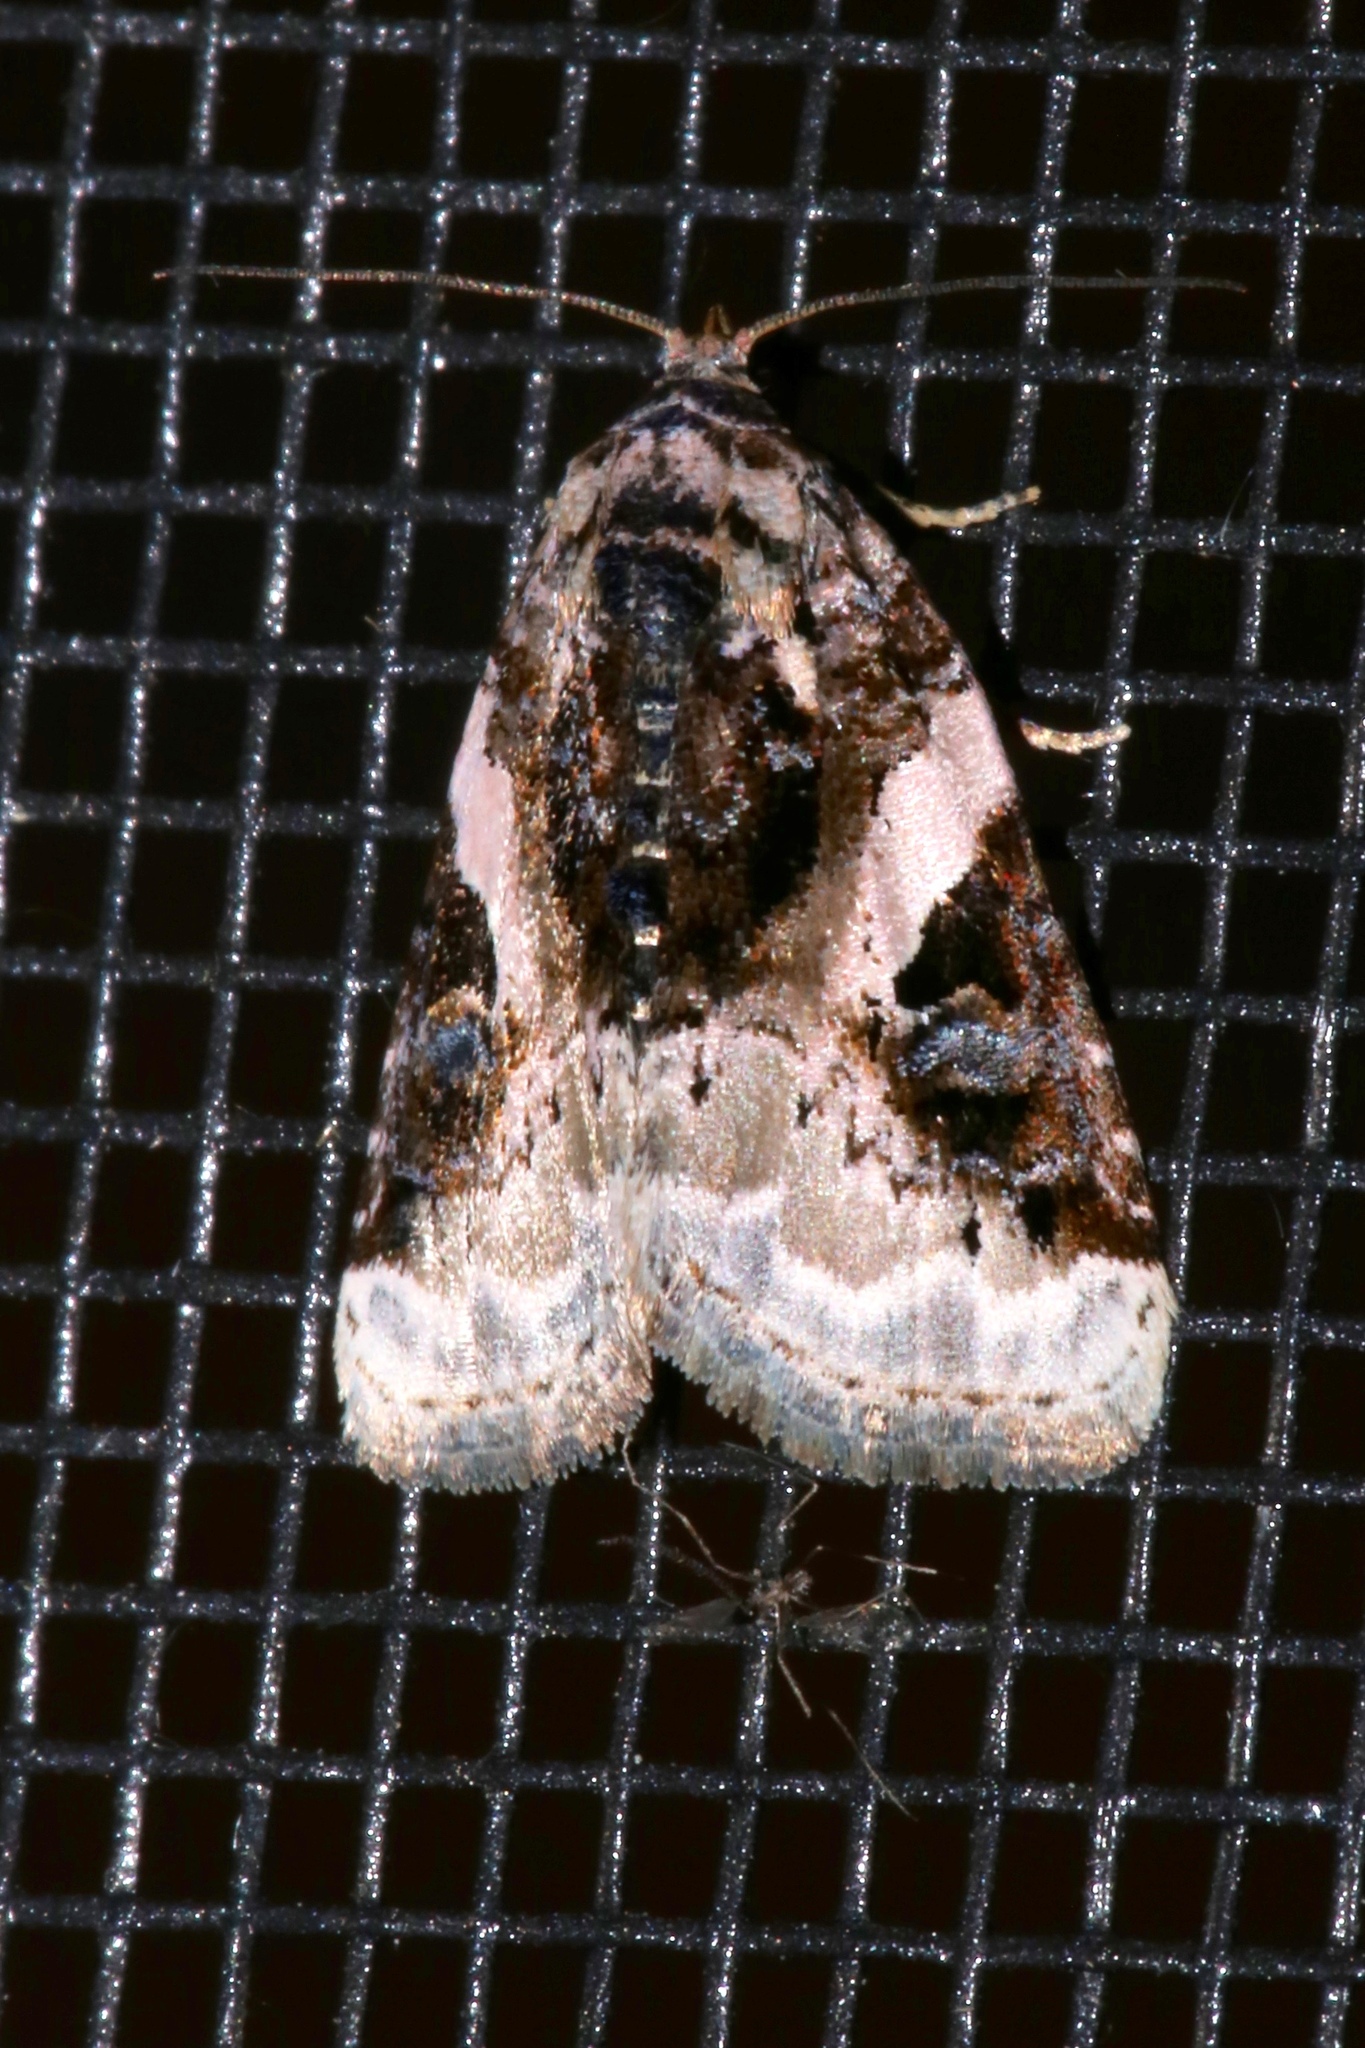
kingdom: Animalia
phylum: Arthropoda
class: Insecta
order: Lepidoptera
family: Noctuidae
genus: Pseudeustrotia
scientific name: Pseudeustrotia carneola
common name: Pink-barred lithacodia moth
